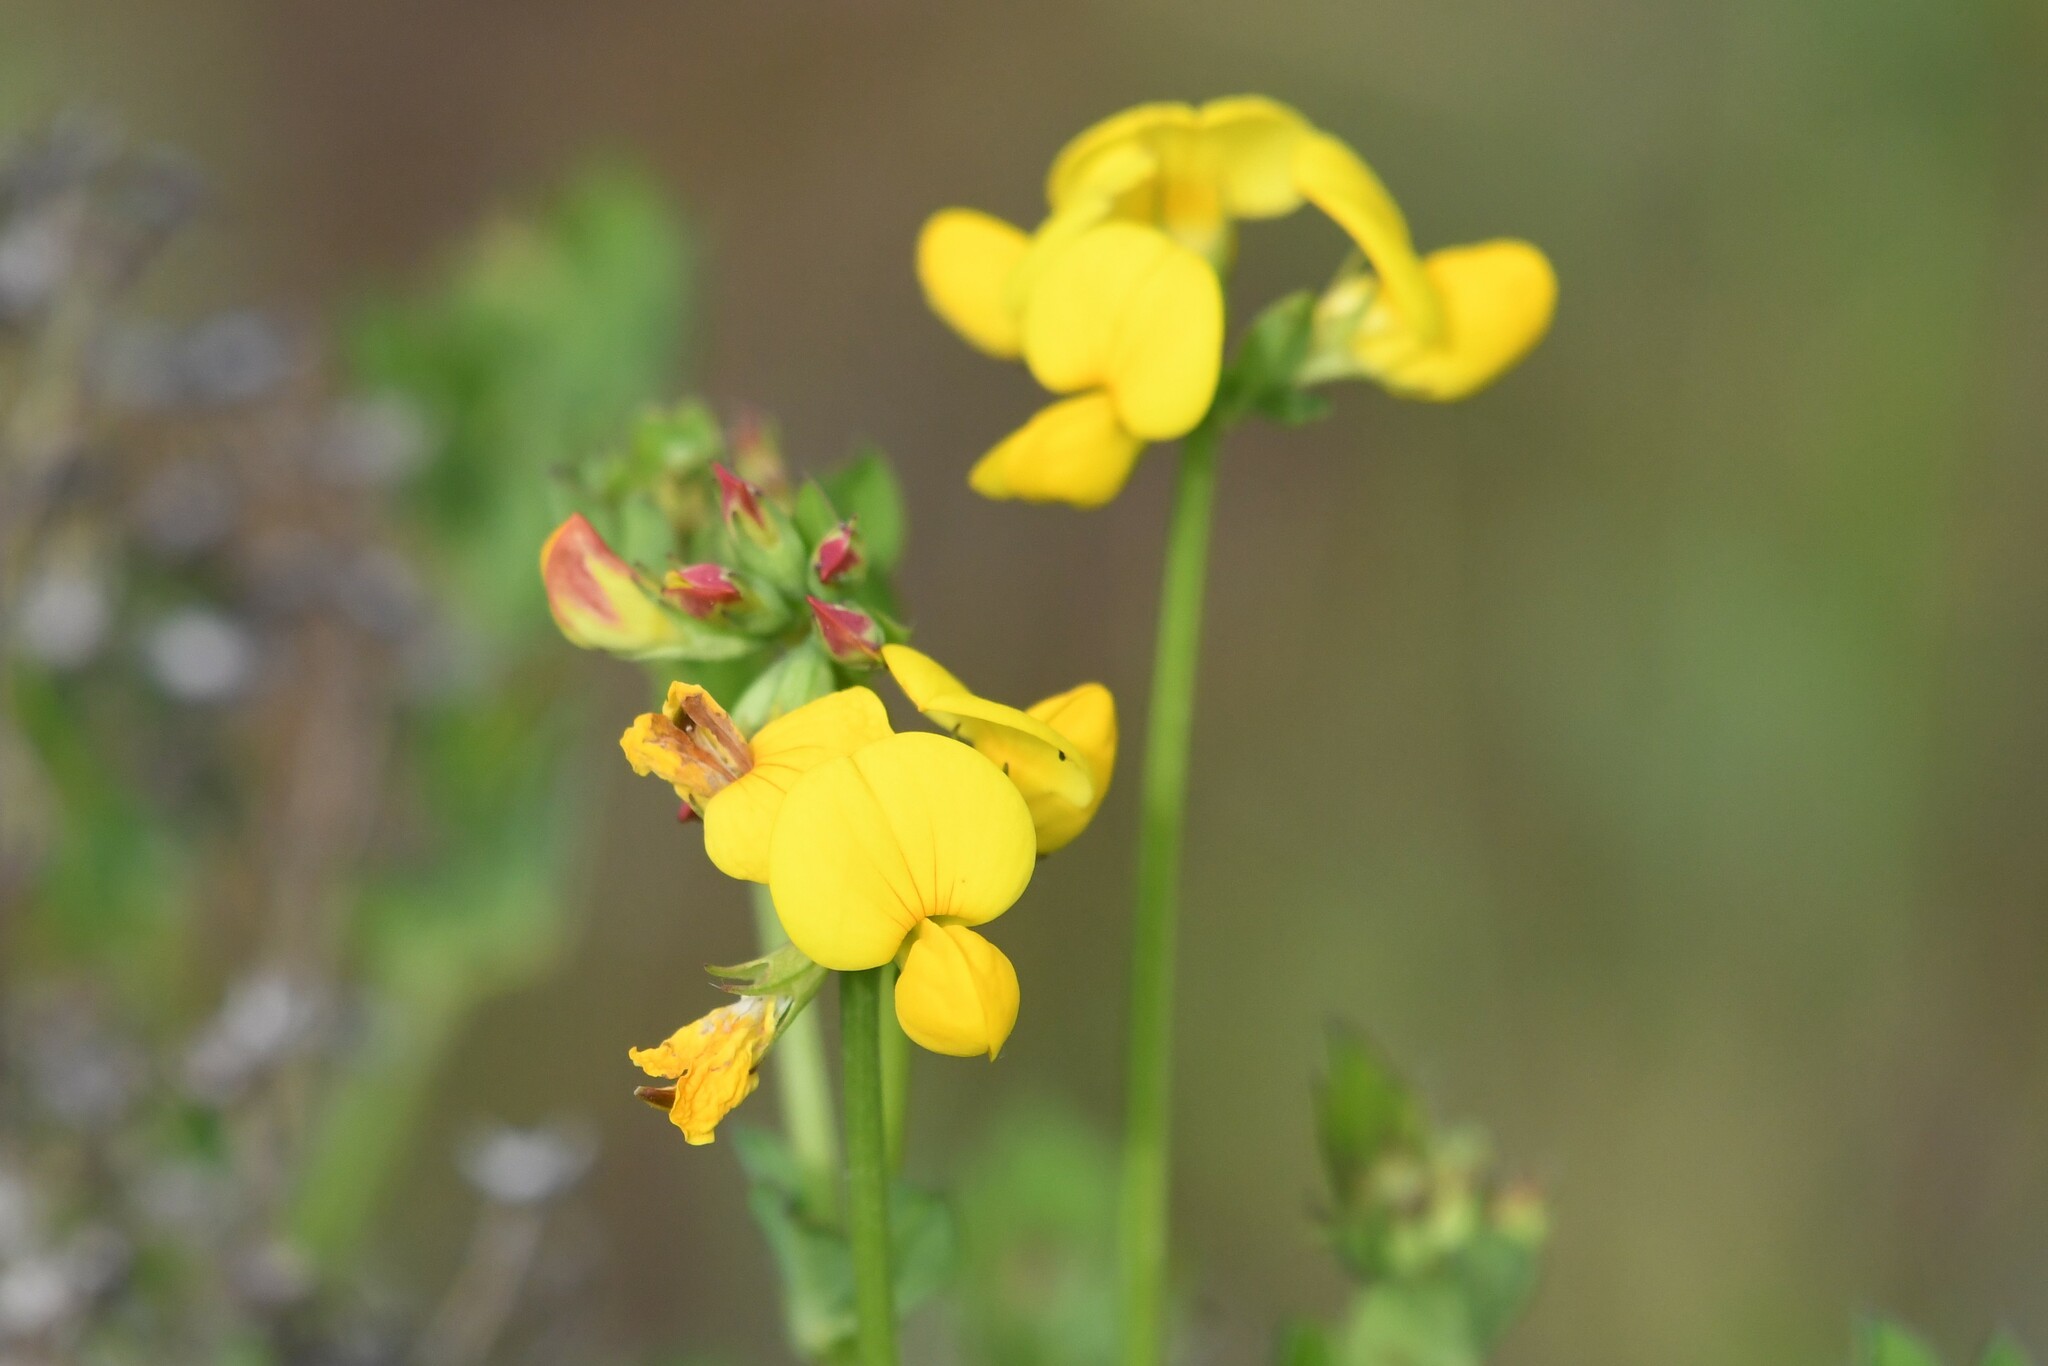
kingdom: Plantae
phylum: Tracheophyta
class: Magnoliopsida
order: Fabales
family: Fabaceae
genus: Lotus
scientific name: Lotus corniculatus
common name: Common bird's-foot-trefoil
